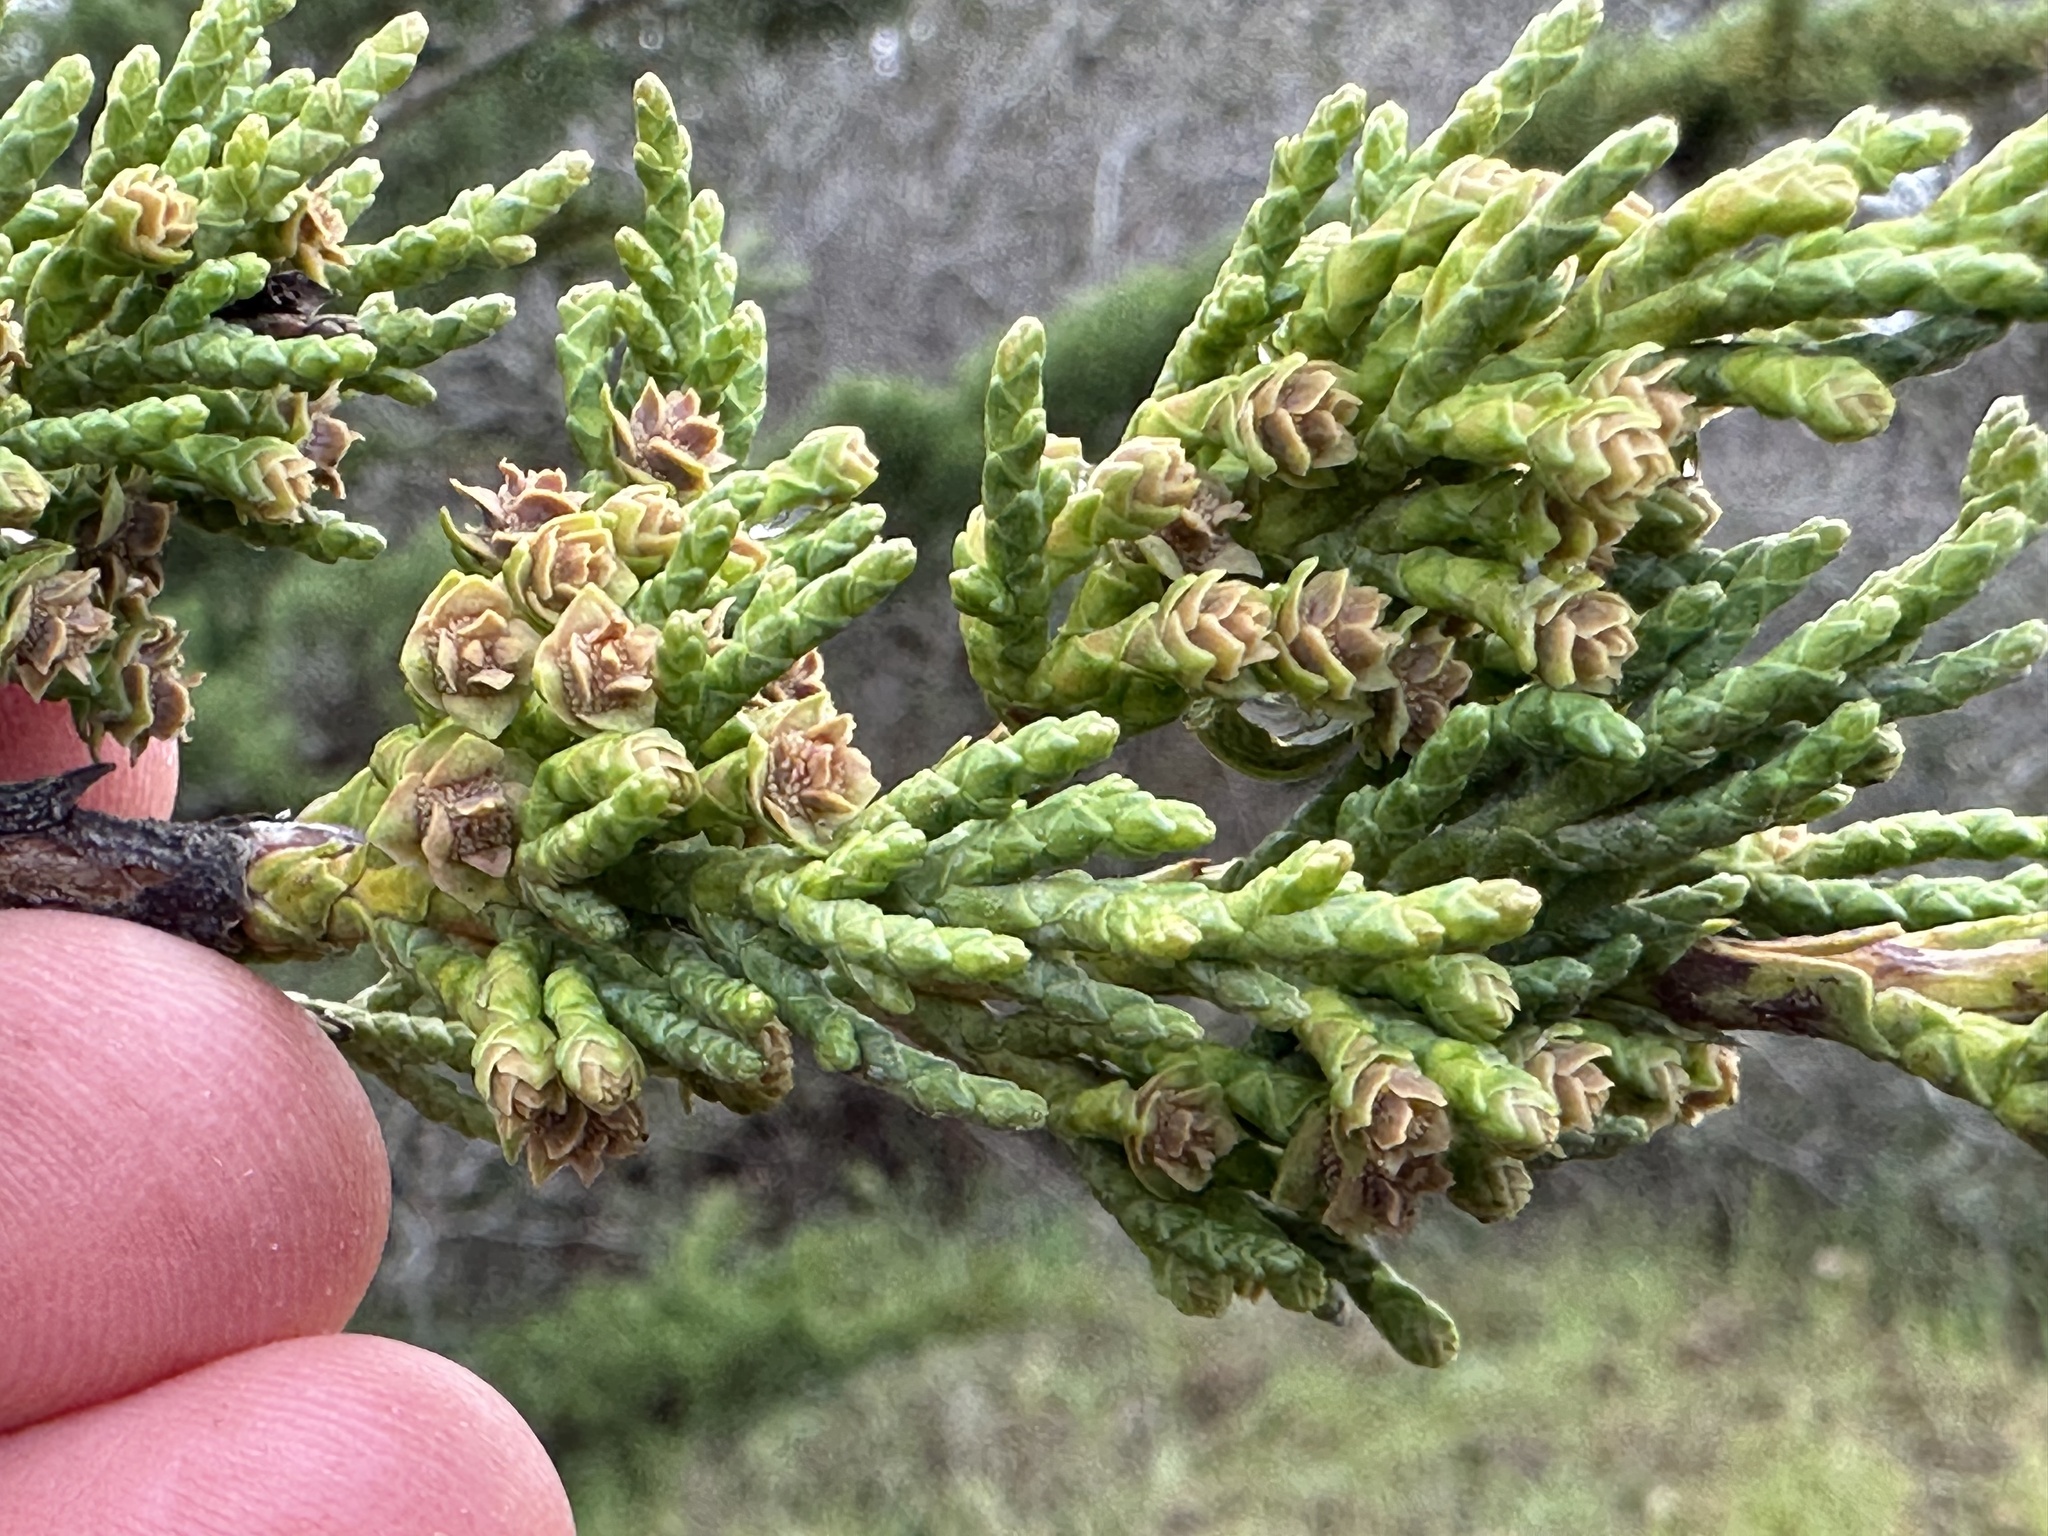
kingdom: Plantae
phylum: Tracheophyta
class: Pinopsida
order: Pinales
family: Cupressaceae
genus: Cupressus
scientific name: Cupressus macrocarpa
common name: Monterey cypress
